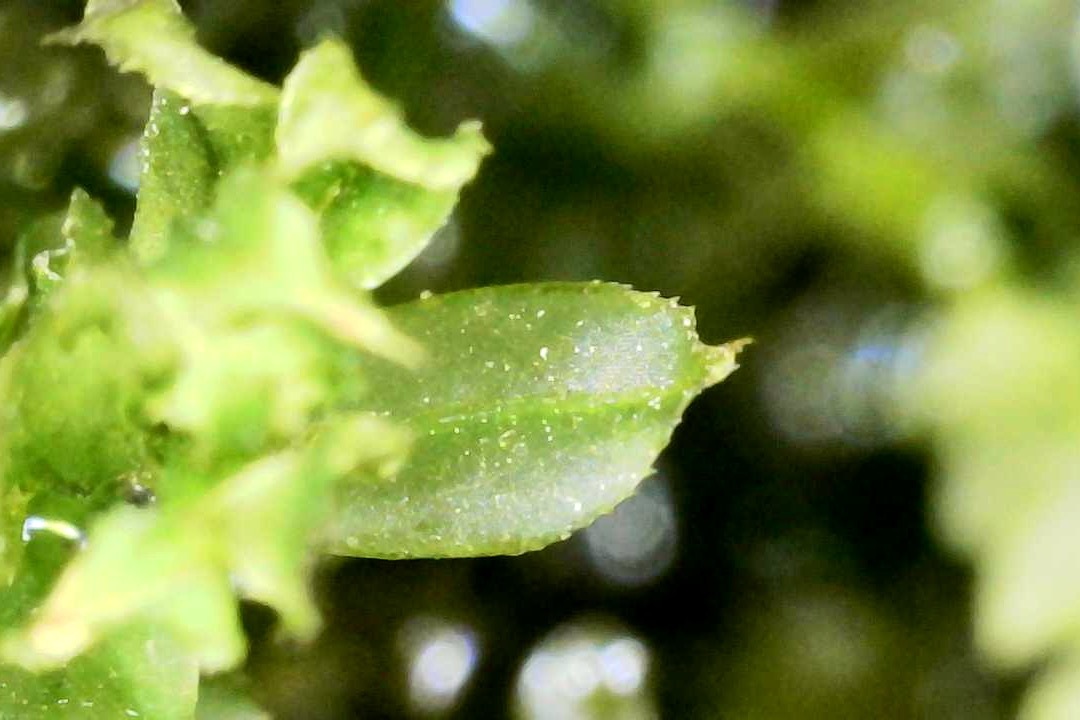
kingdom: Plantae
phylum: Bryophyta
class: Bryopsida
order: Bryales
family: Mniaceae
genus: Plagiomnium
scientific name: Plagiomnium cuspidatum
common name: Woodsy leafy moss
